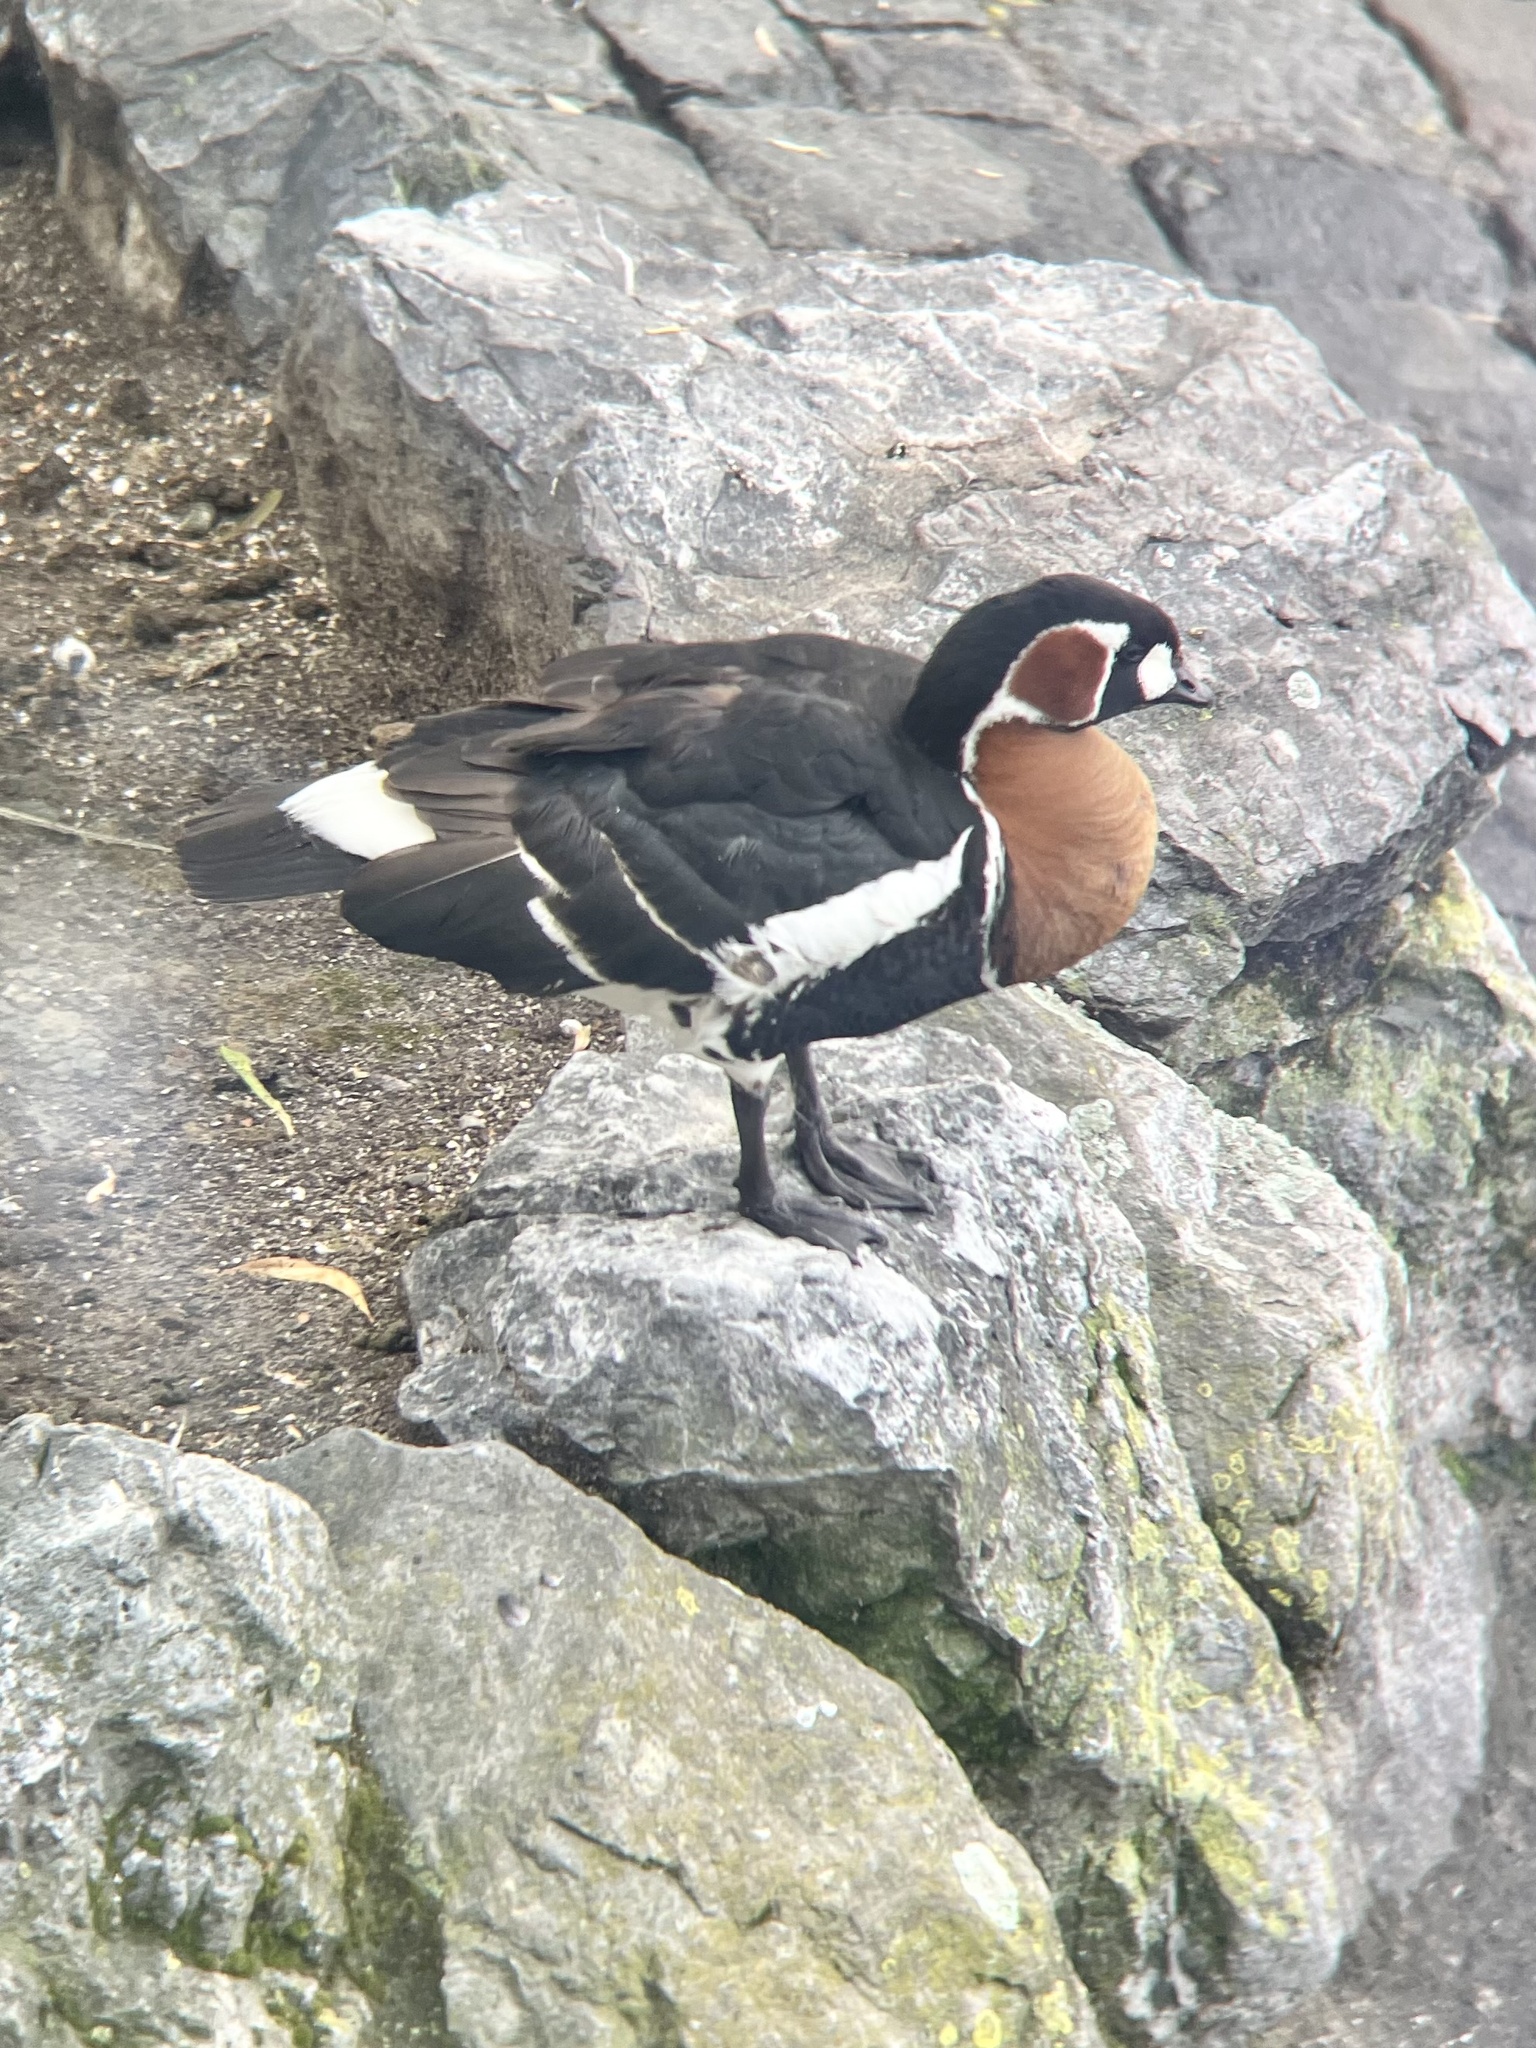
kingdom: Animalia
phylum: Chordata
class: Aves
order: Anseriformes
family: Anatidae
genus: Branta
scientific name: Branta ruficollis
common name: Red-breasted goose
